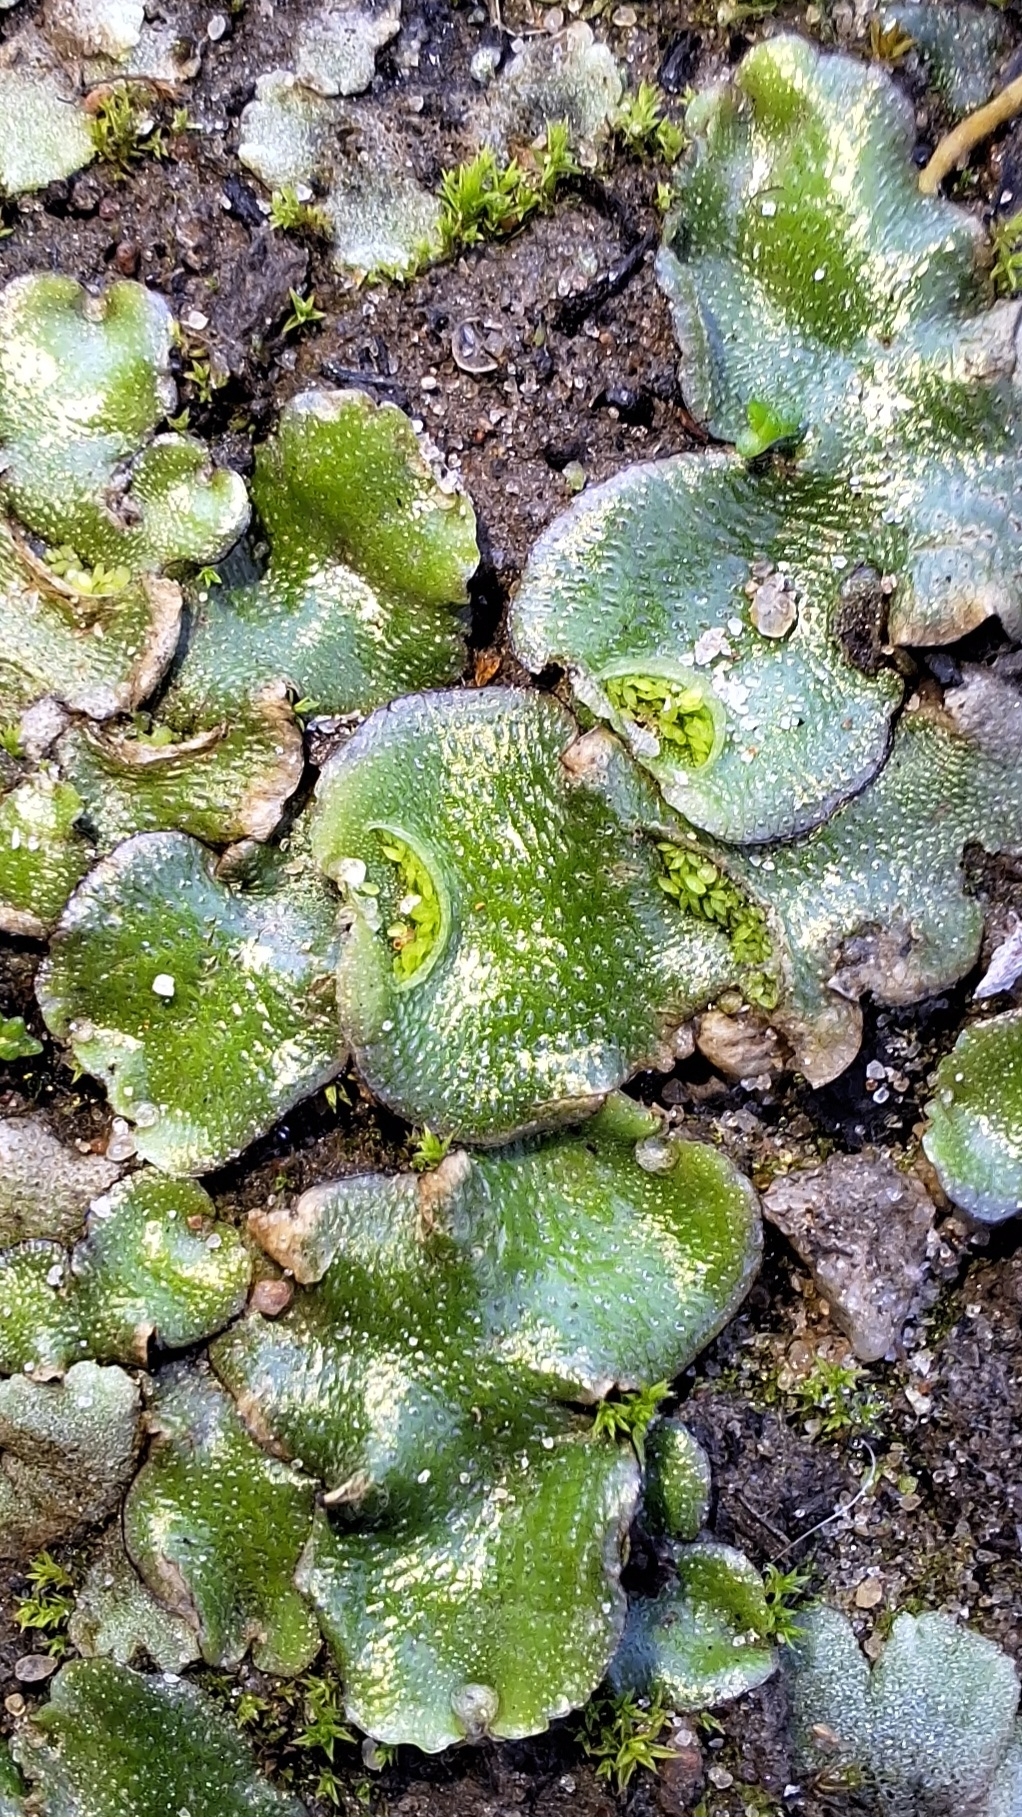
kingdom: Plantae
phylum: Marchantiophyta
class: Marchantiopsida
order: Lunulariales
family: Lunulariaceae
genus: Lunularia
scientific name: Lunularia cruciata
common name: Crescent-cup liverwort
